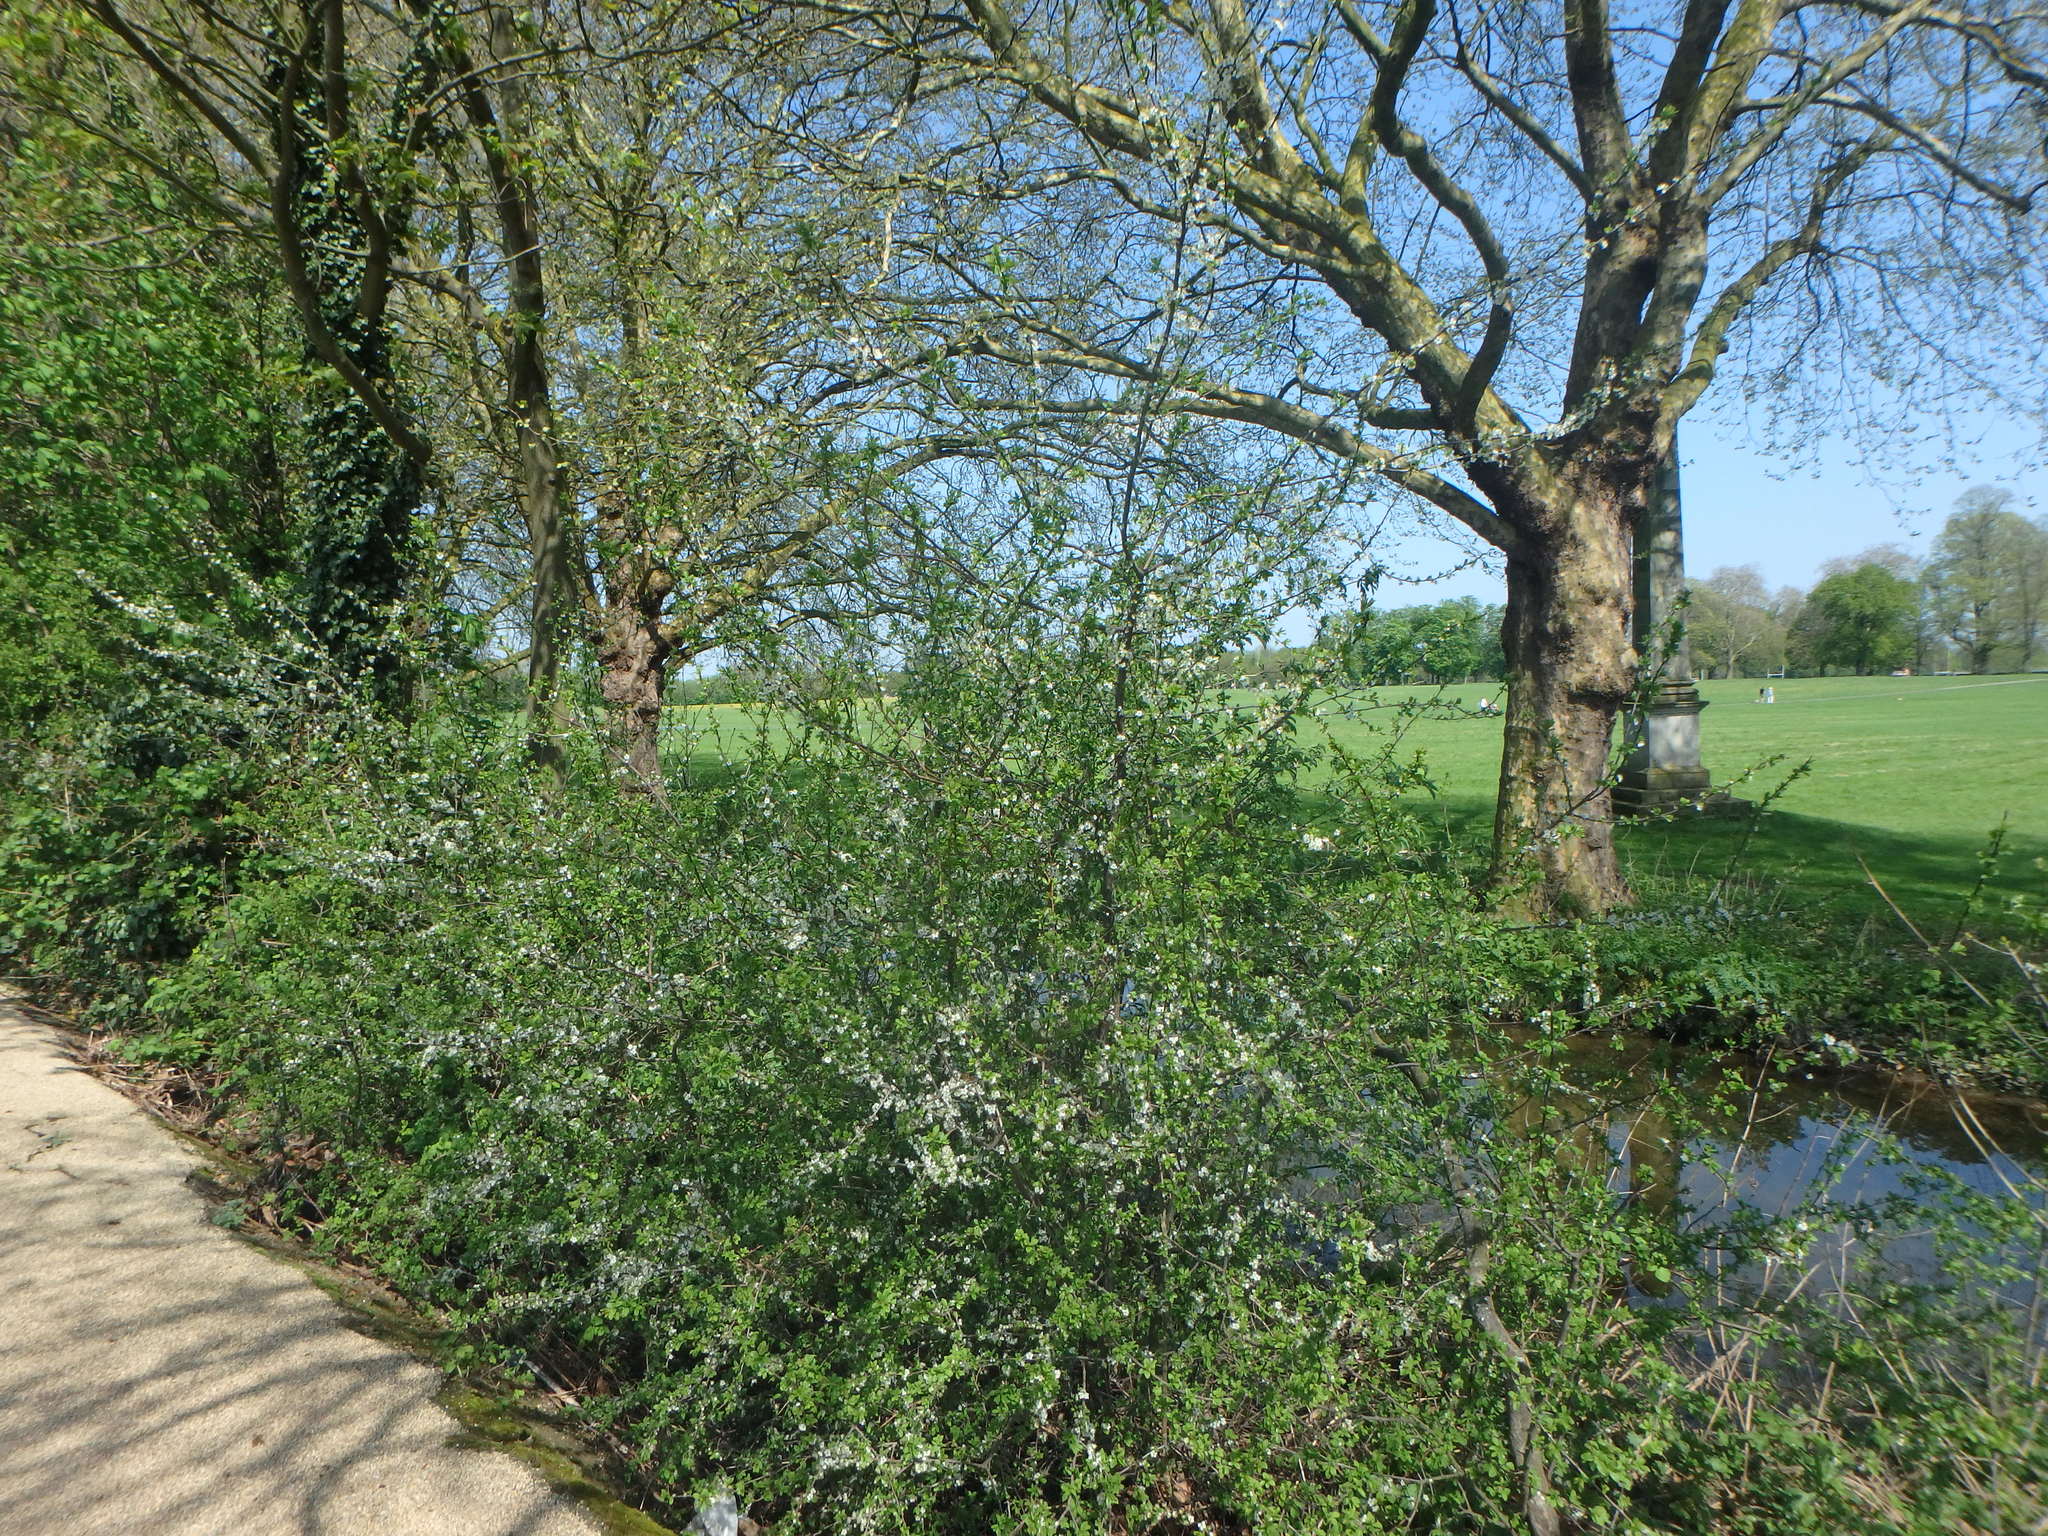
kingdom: Plantae
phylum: Tracheophyta
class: Magnoliopsida
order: Rosales
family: Rosaceae
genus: Prunus
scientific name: Prunus spinosa
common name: Blackthorn
